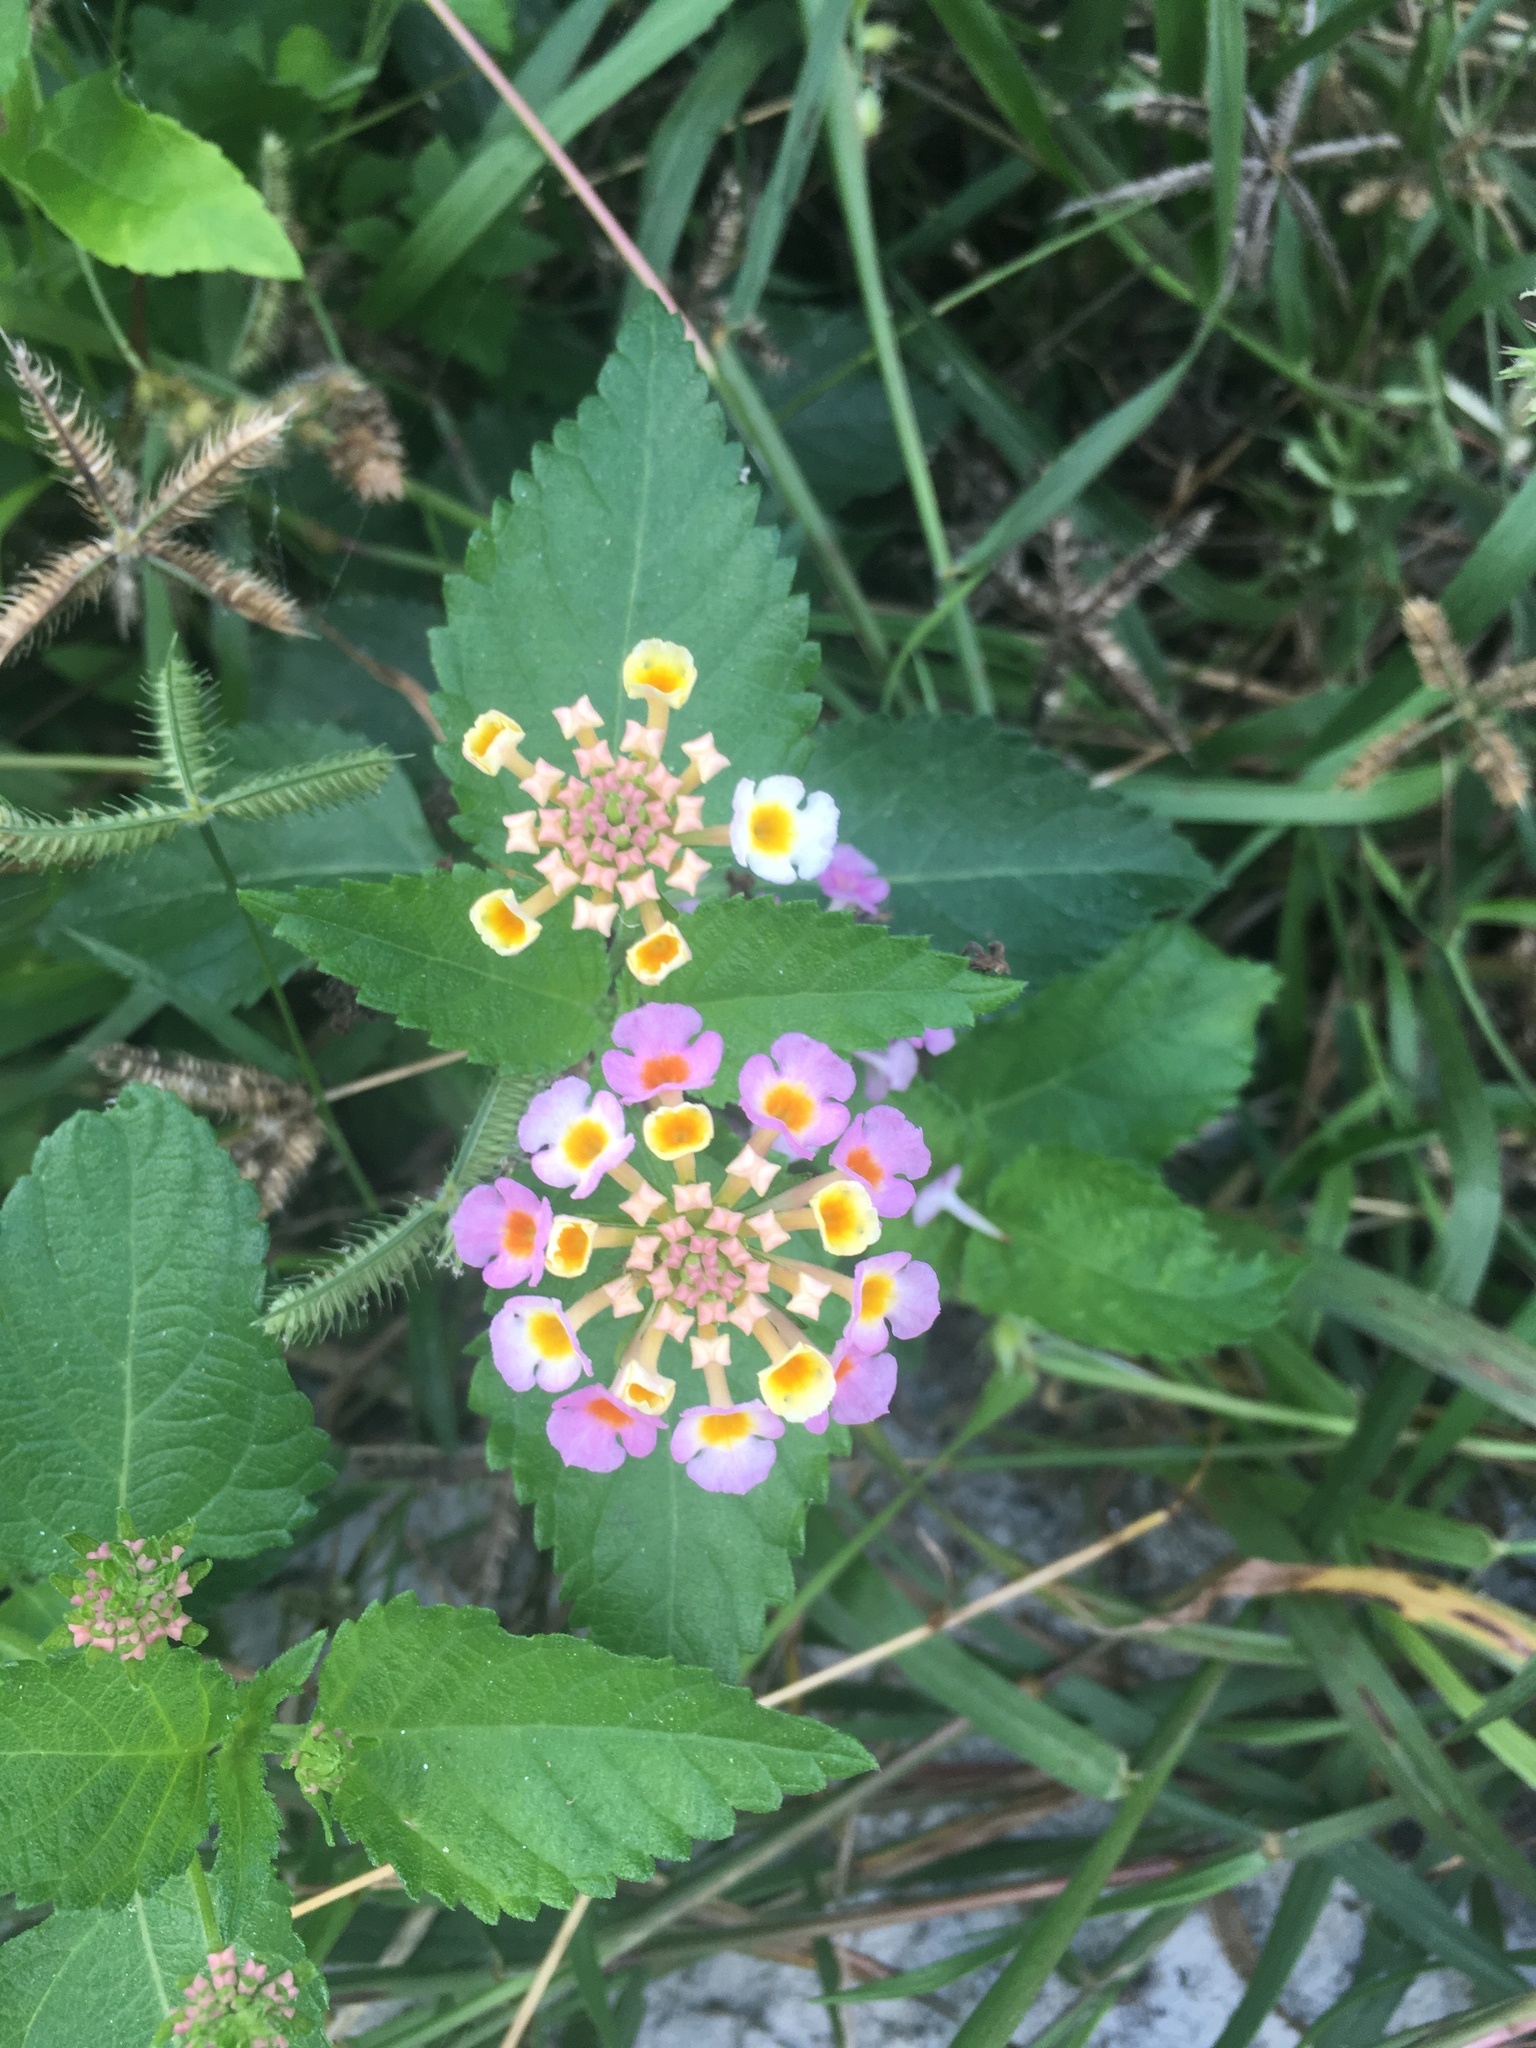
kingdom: Plantae
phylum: Tracheophyta
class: Magnoliopsida
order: Lamiales
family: Verbenaceae
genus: Lantana
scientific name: Lantana camara
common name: Lantana
